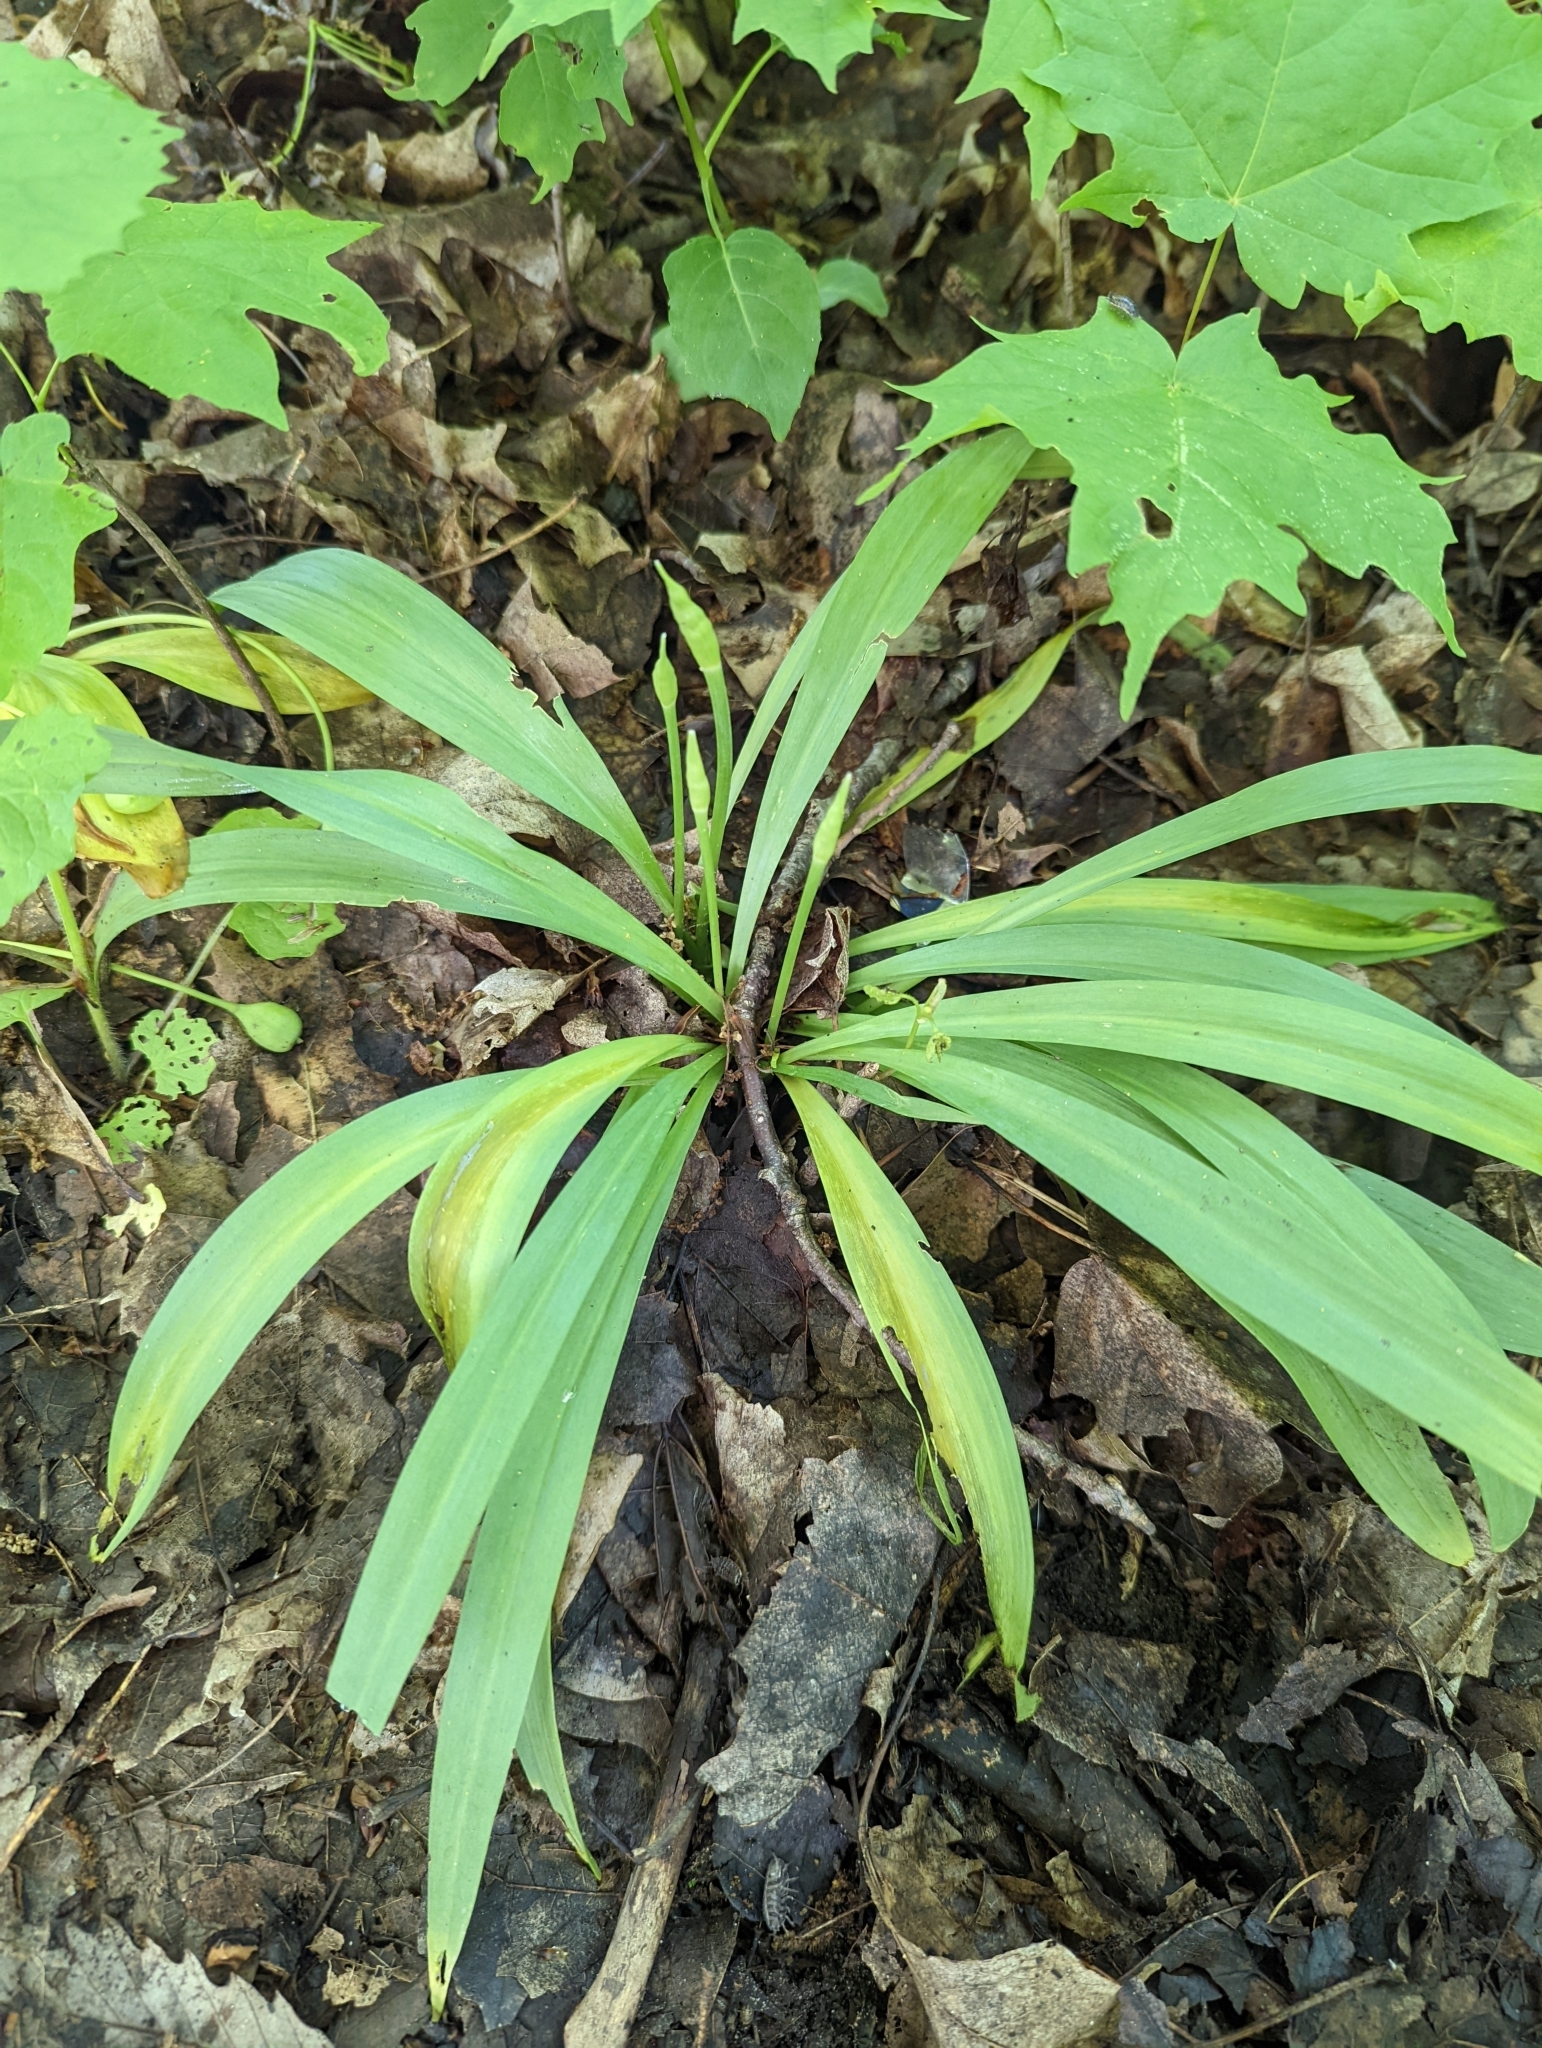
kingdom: Plantae
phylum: Tracheophyta
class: Liliopsida
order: Asparagales
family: Amaryllidaceae
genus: Allium
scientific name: Allium tricoccum
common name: Ramp
